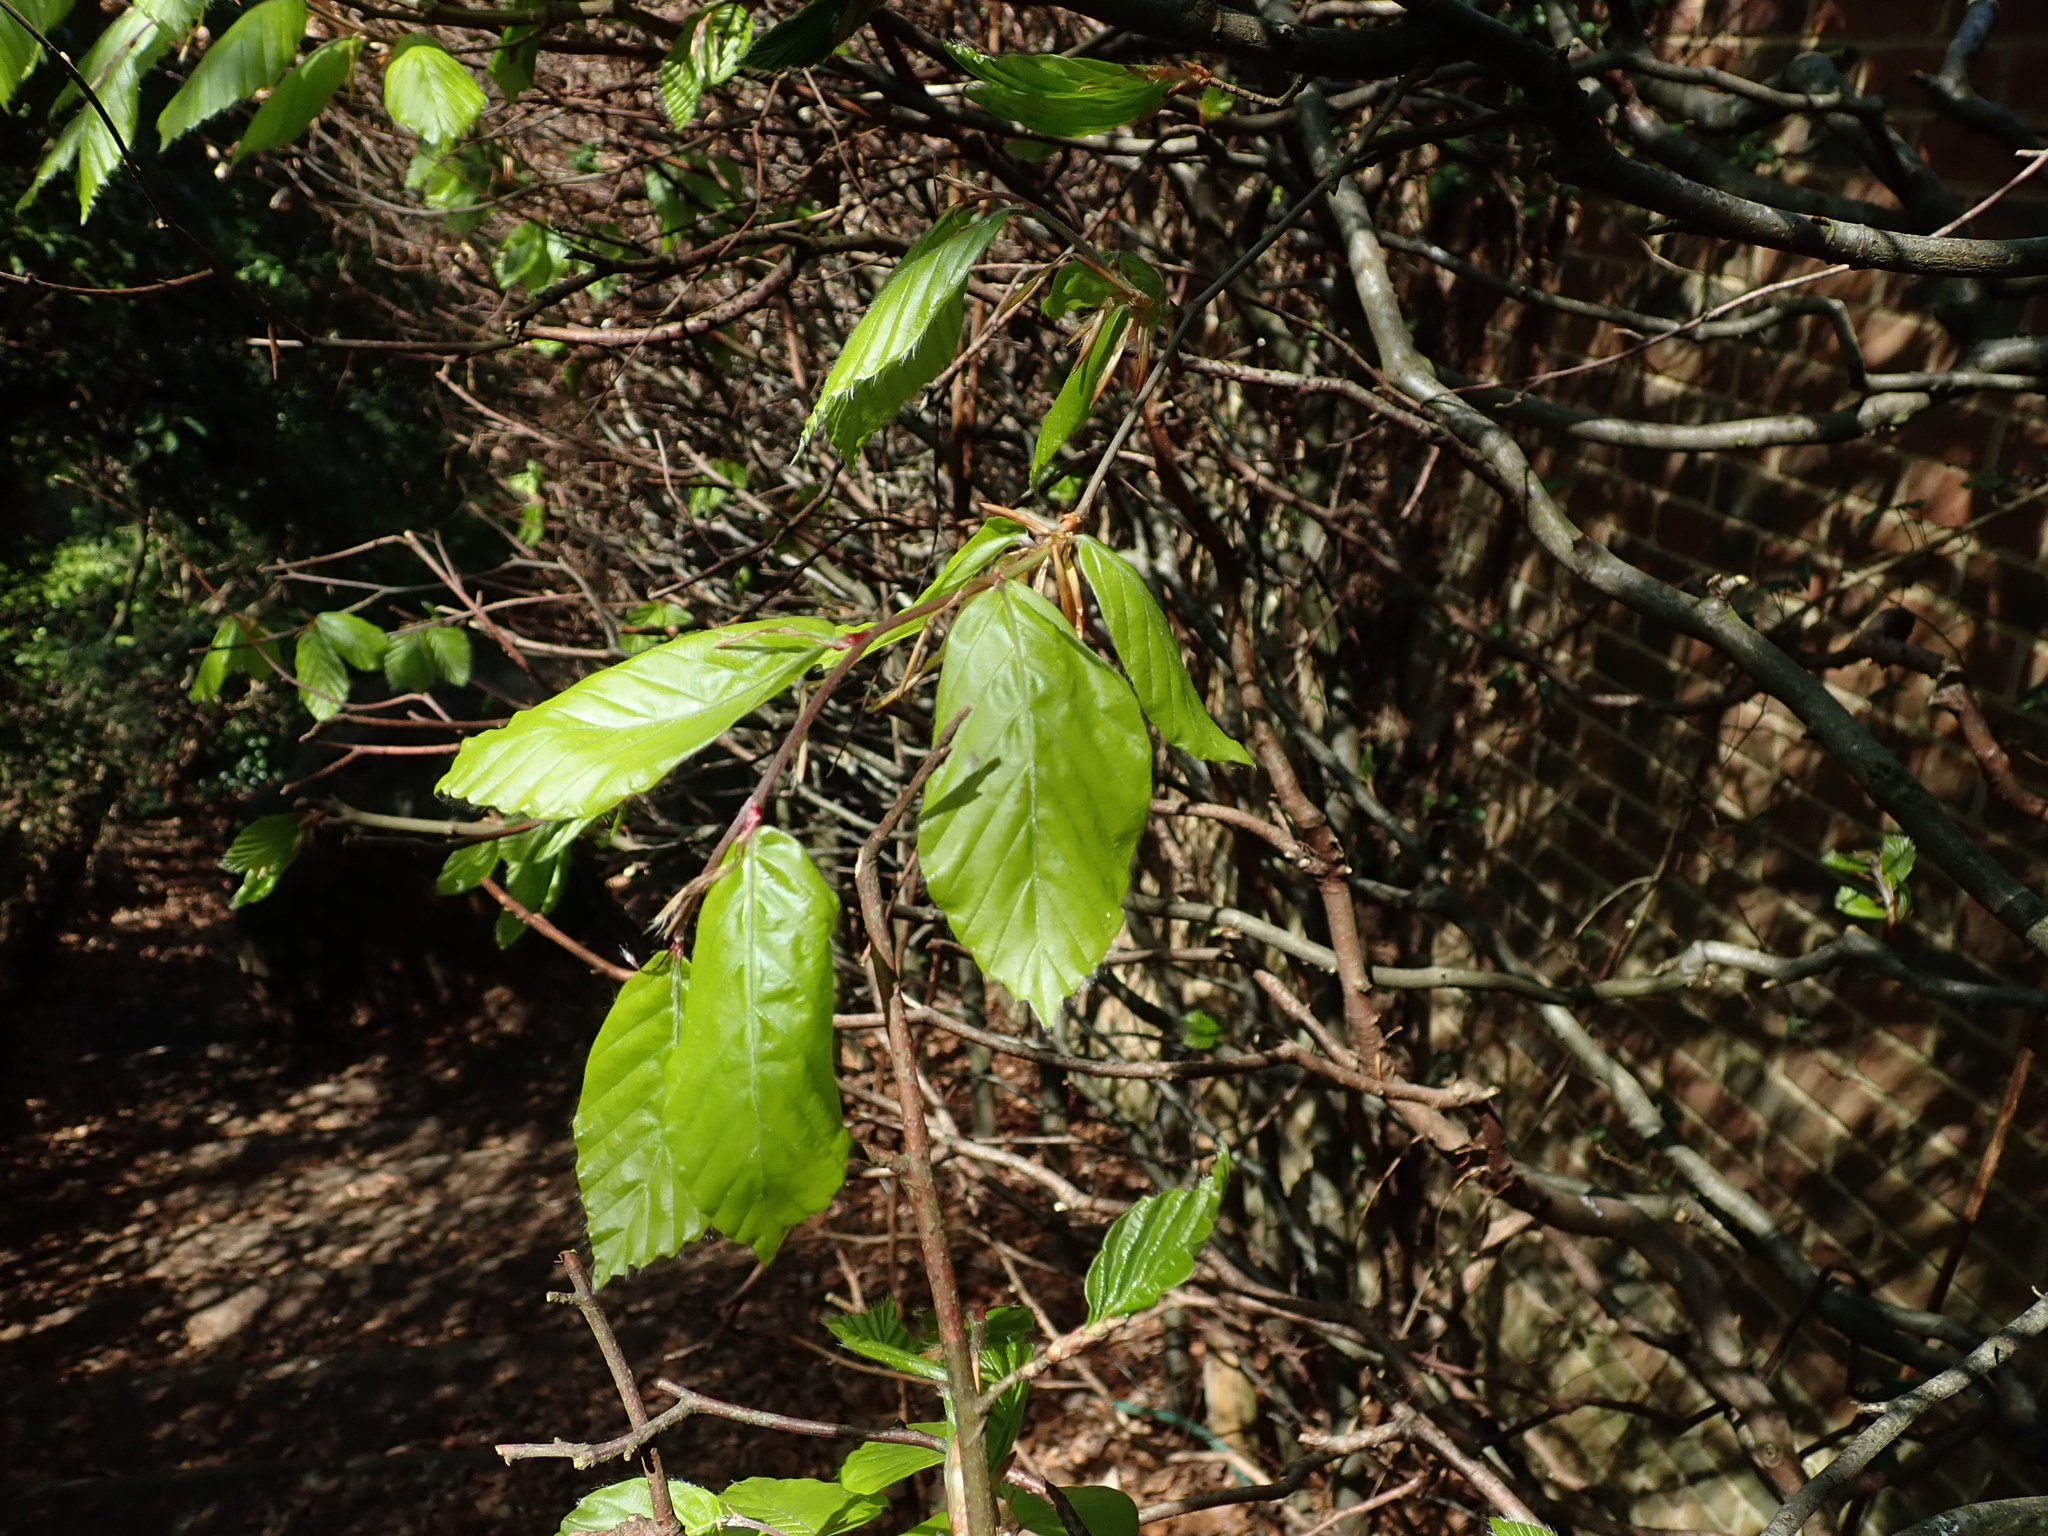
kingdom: Plantae
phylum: Tracheophyta
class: Magnoliopsida
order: Fagales
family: Fagaceae
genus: Fagus
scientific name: Fagus sylvatica
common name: Beech
